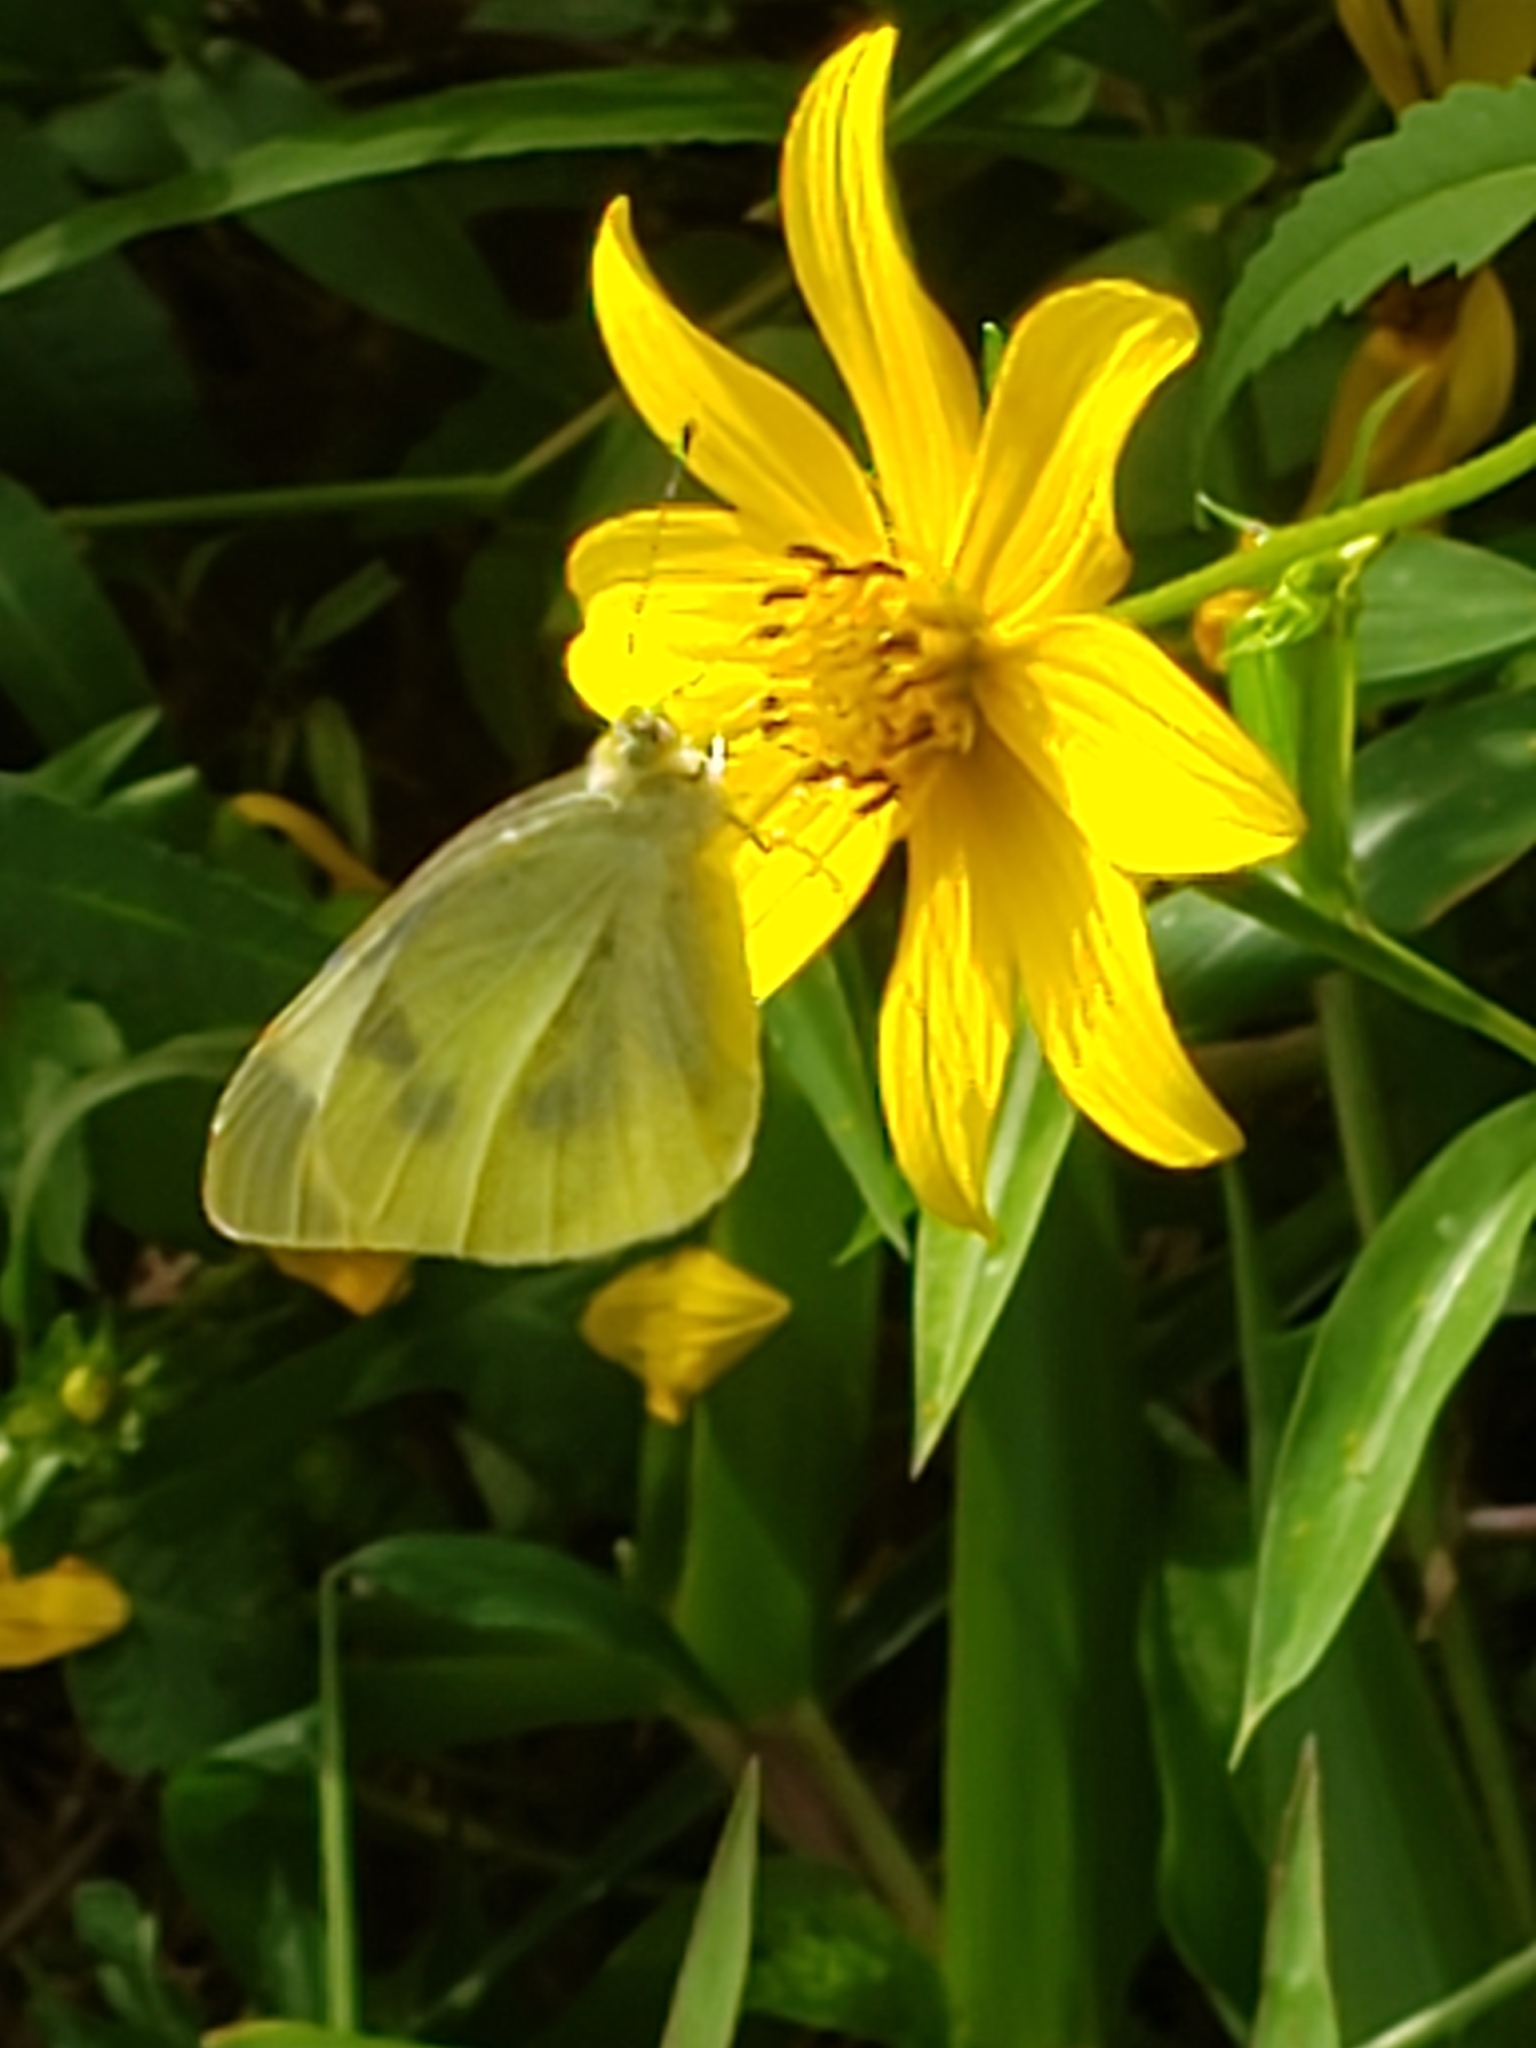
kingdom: Animalia
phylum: Arthropoda
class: Insecta
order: Lepidoptera
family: Pieridae
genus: Pieris
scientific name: Pieris rapae
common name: Small white
